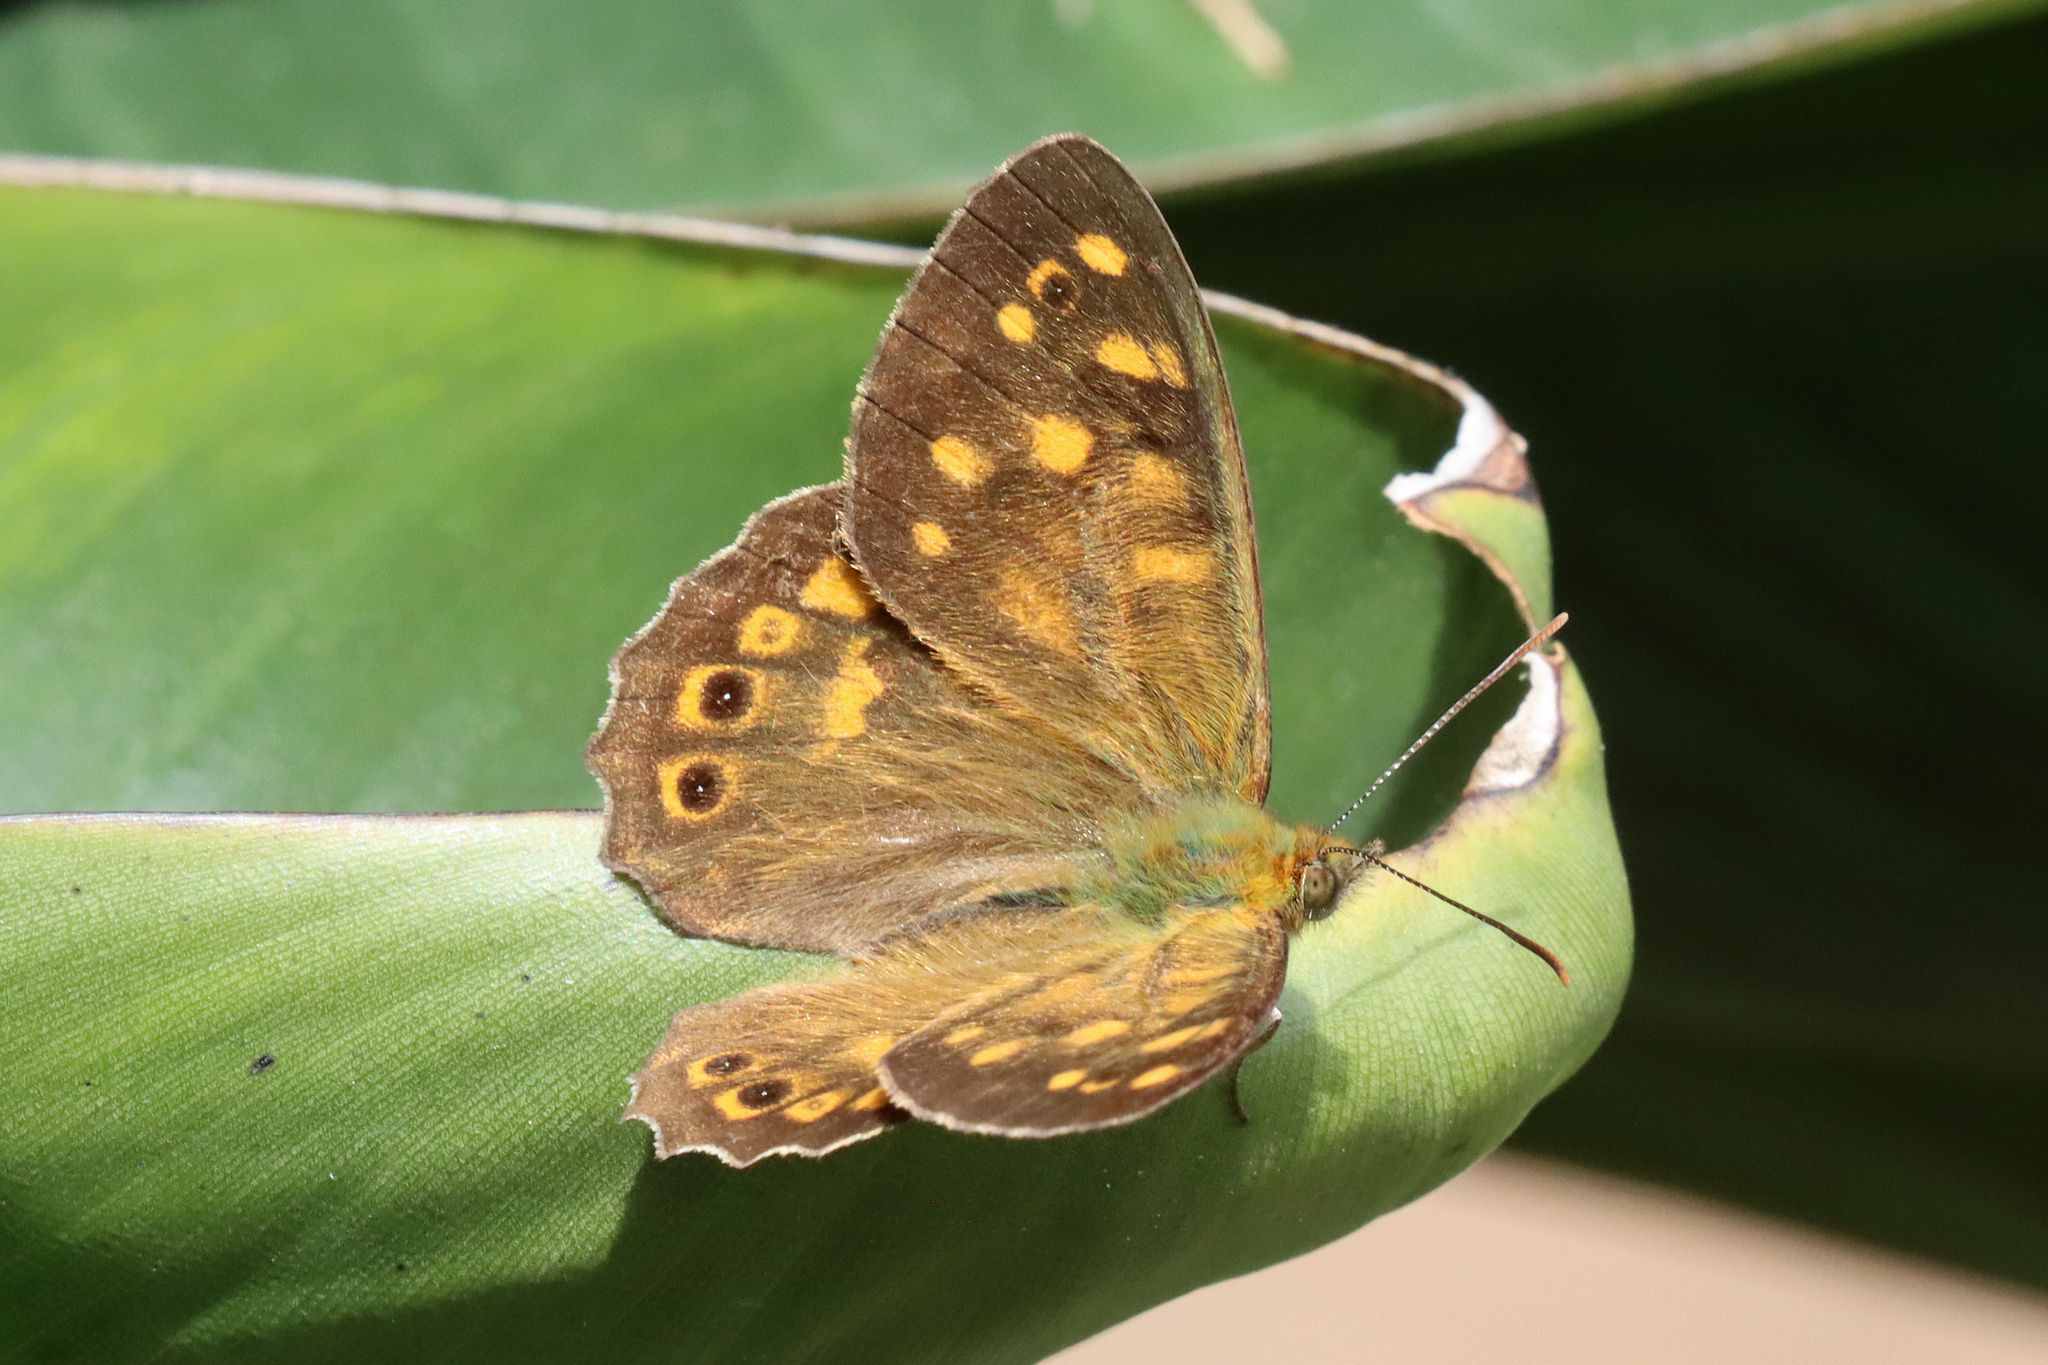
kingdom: Animalia
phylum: Arthropoda
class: Insecta
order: Lepidoptera
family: Nymphalidae
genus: Pararge
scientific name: Pararge
